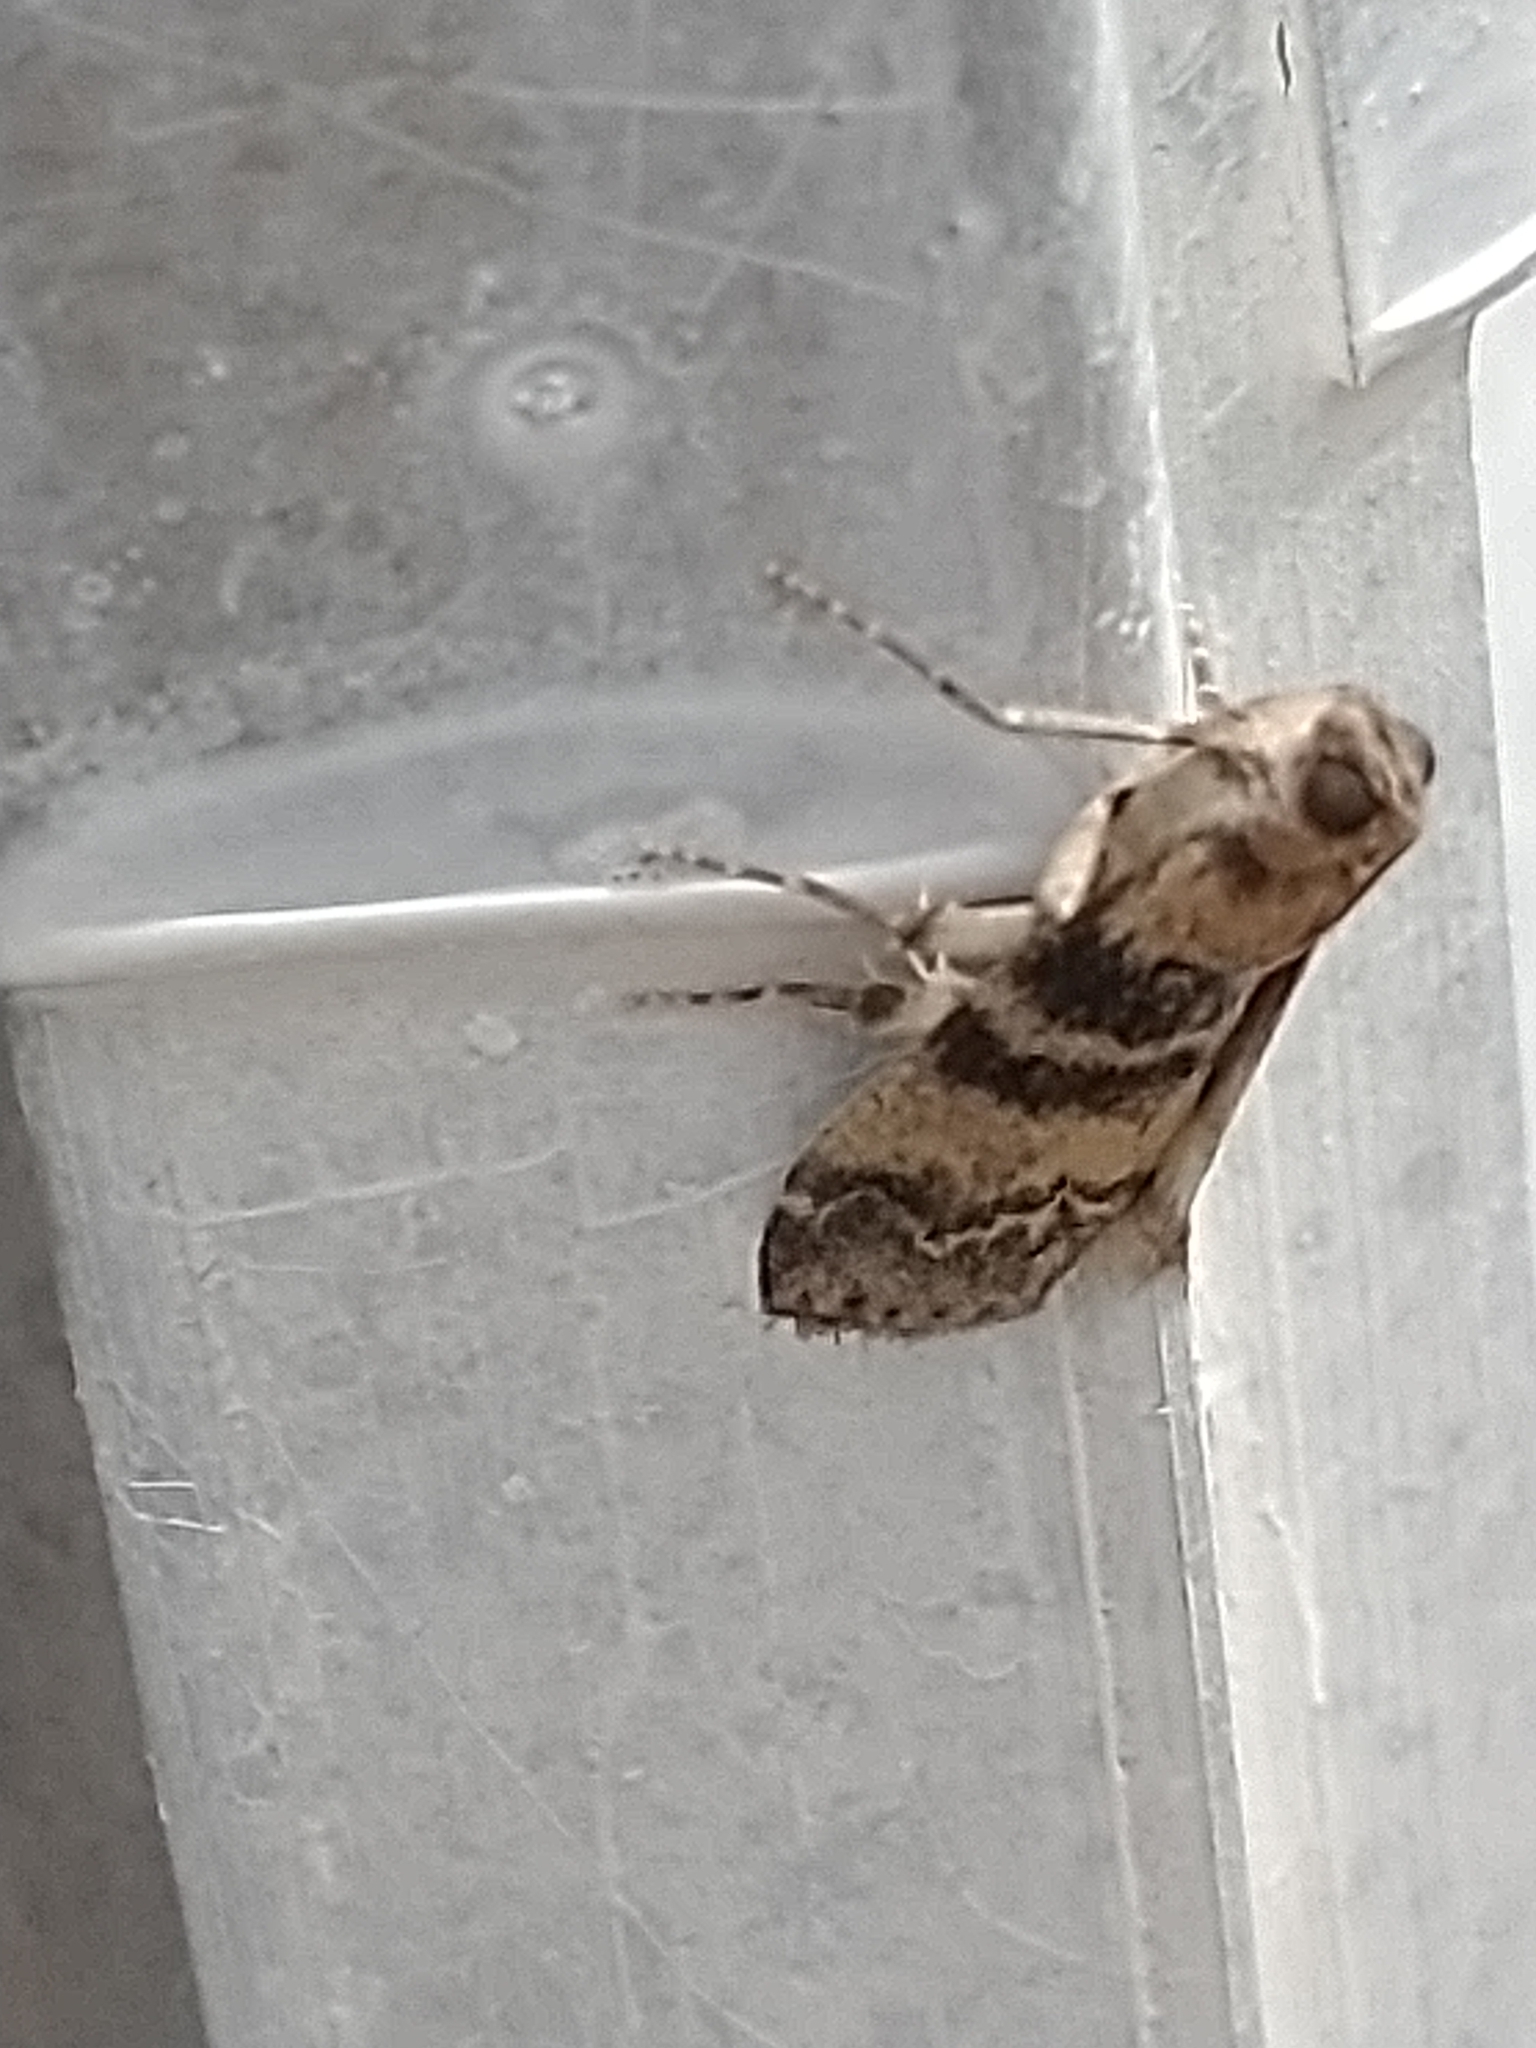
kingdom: Animalia
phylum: Arthropoda
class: Insecta
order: Lepidoptera
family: Pyralidae
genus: Euzophera
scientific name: Euzophera pinguis
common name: Ash-bark knot-horn
